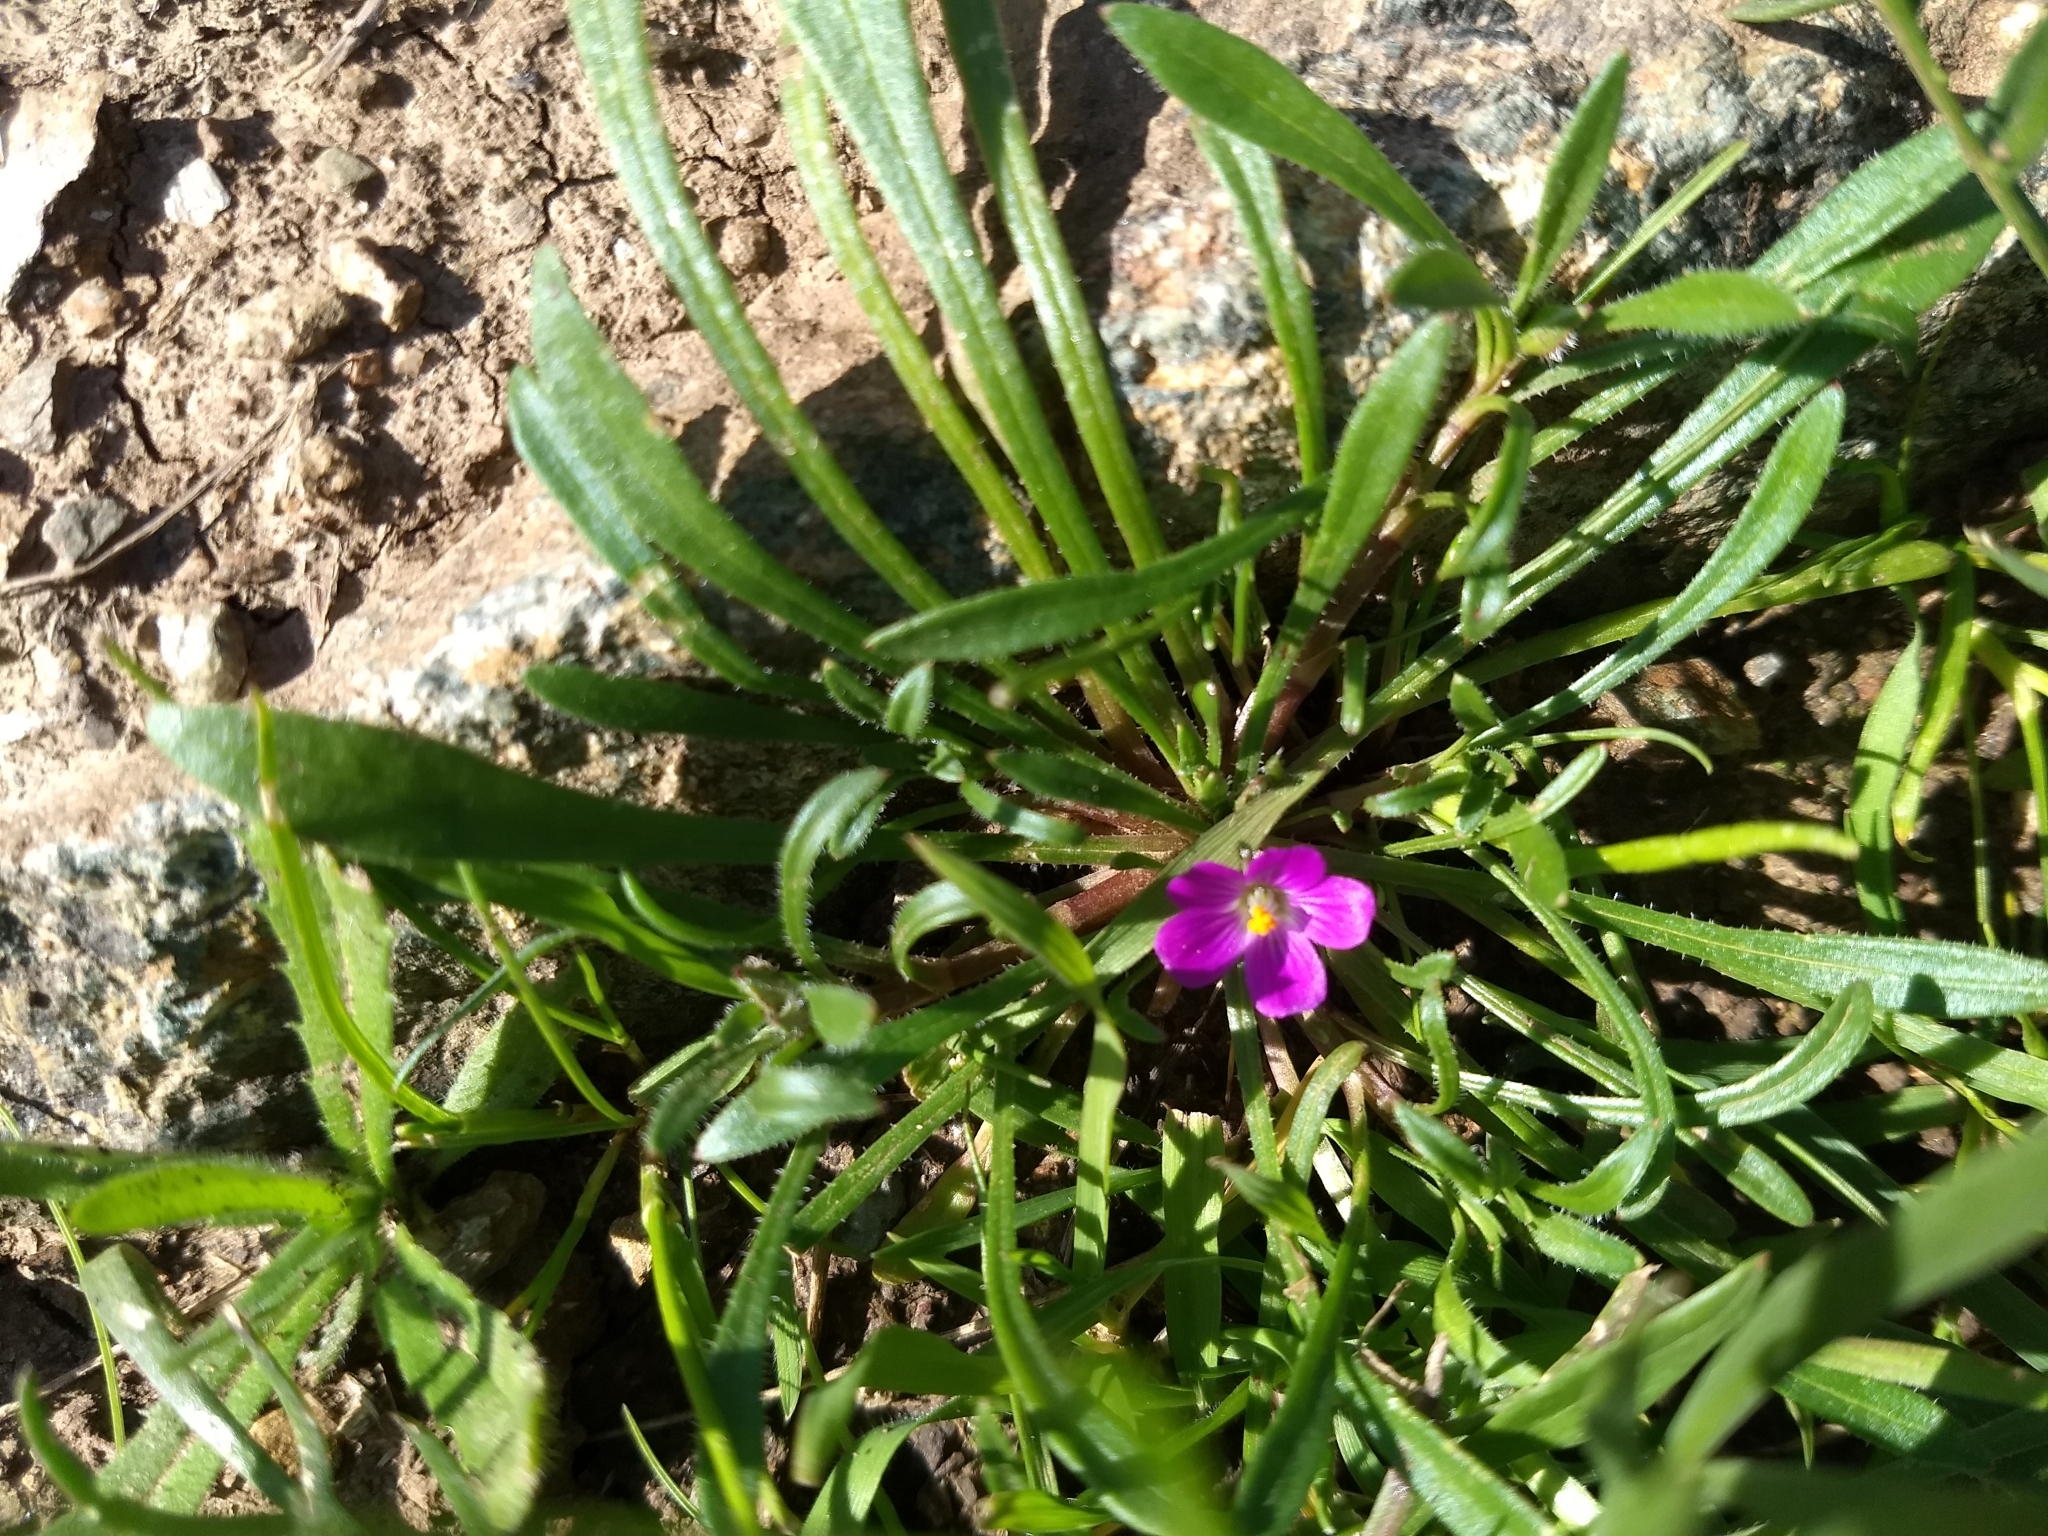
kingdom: Plantae
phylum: Tracheophyta
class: Magnoliopsida
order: Caryophyllales
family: Montiaceae
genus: Calandrinia
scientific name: Calandrinia menziesii
